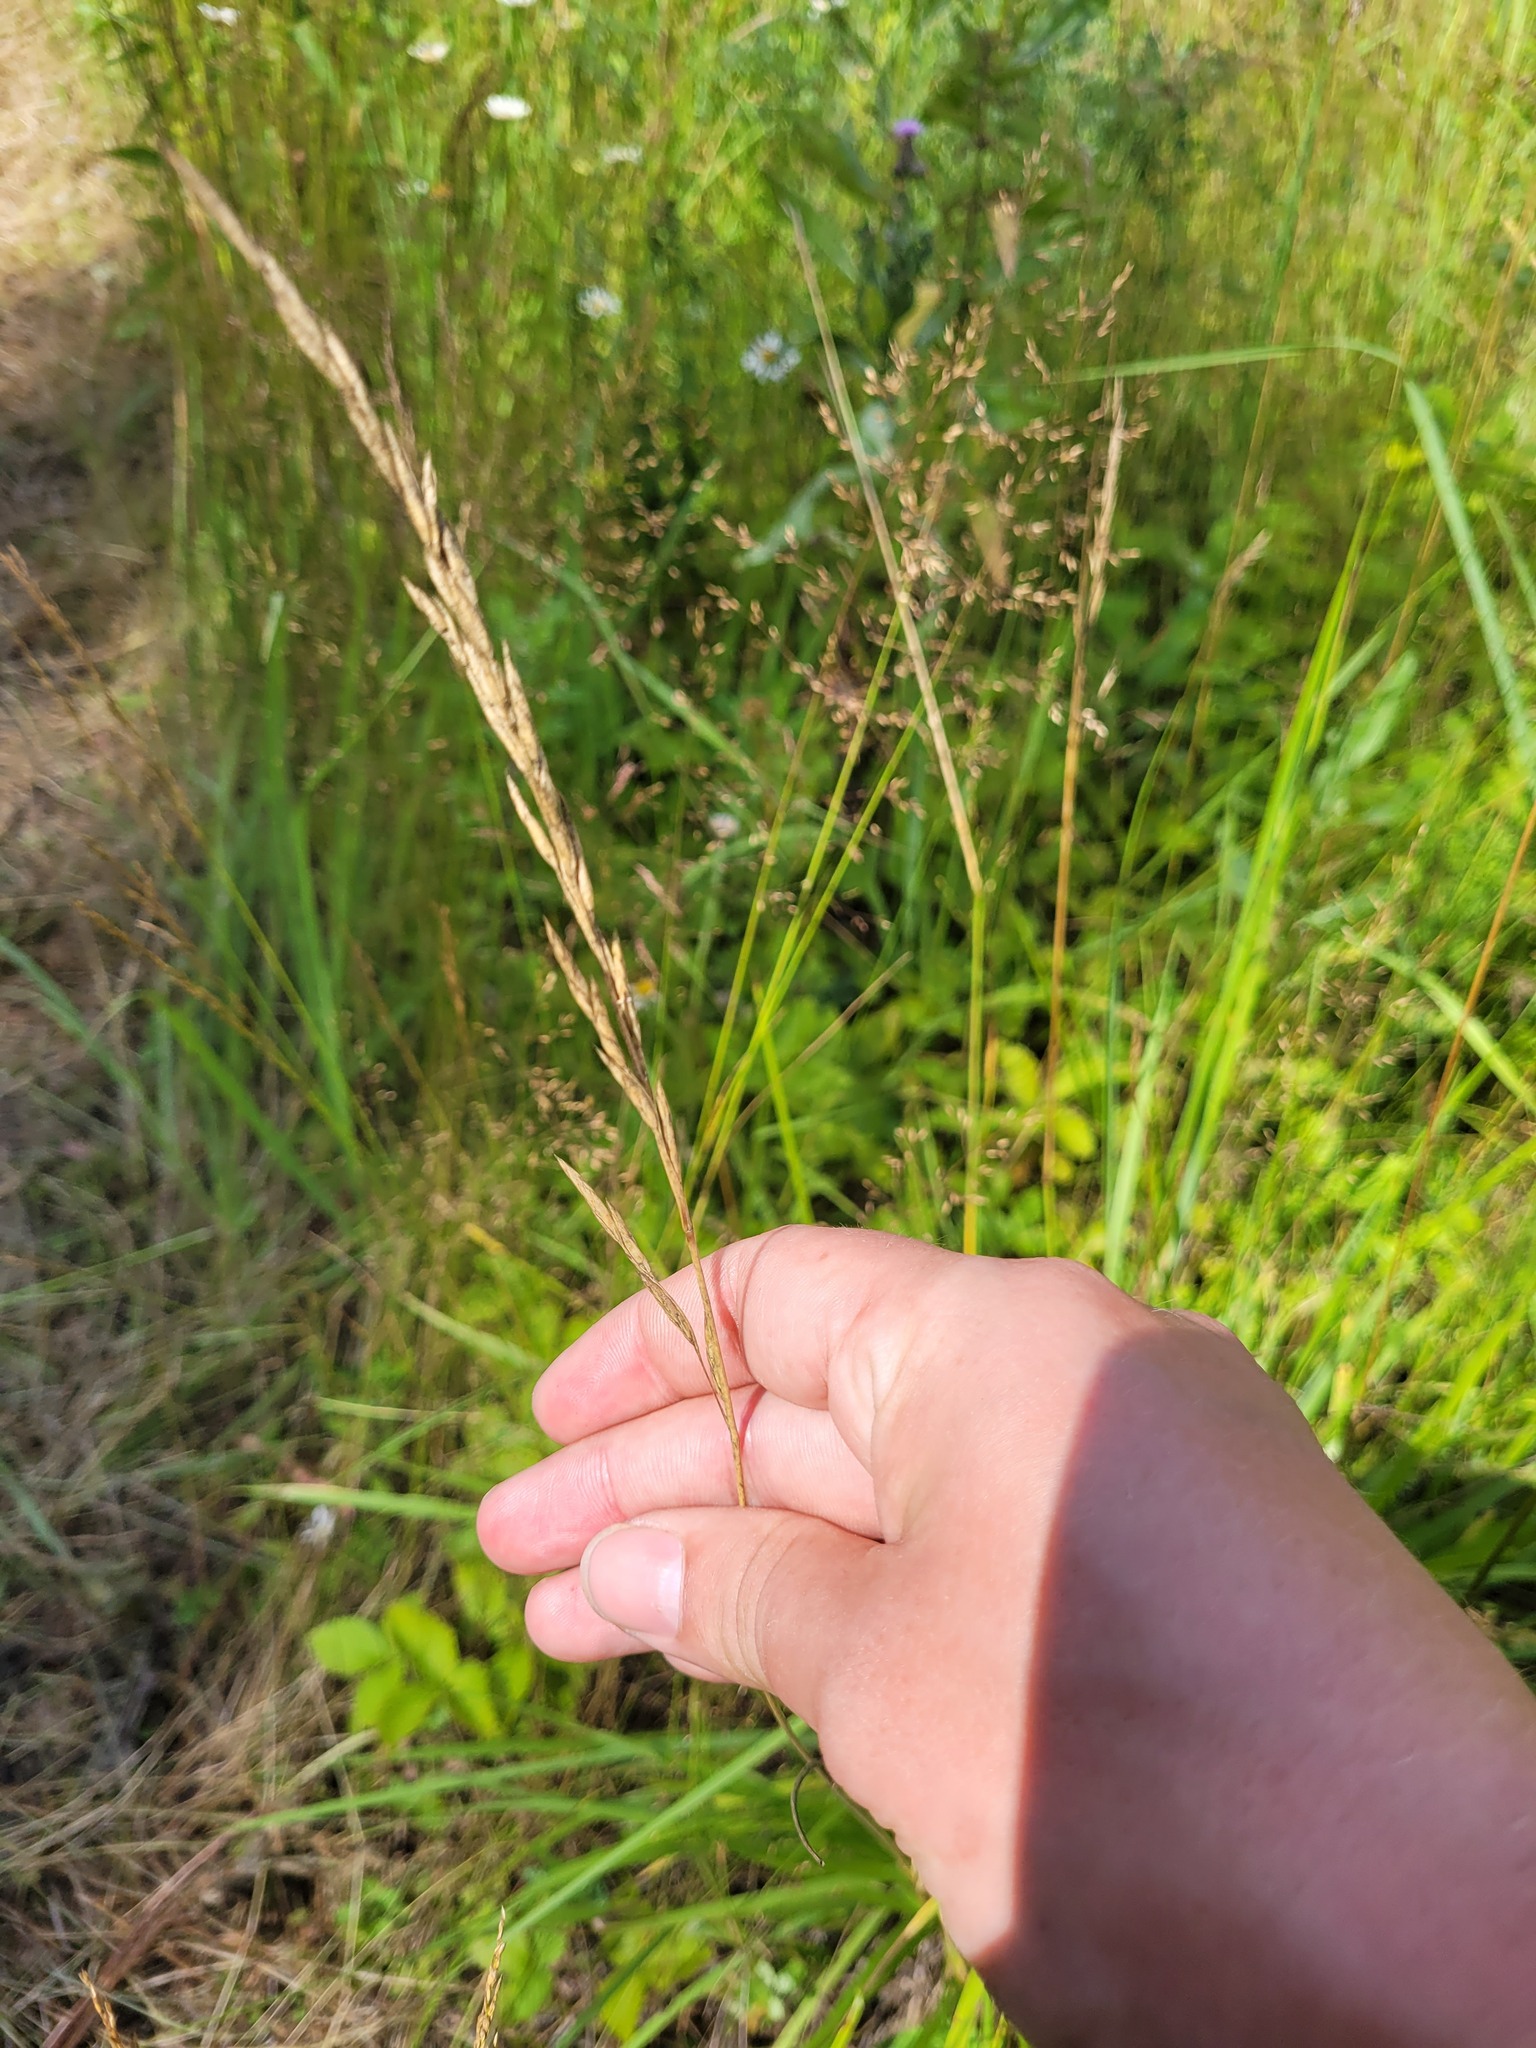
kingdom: Plantae
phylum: Tracheophyta
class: Liliopsida
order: Poales
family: Poaceae
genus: Lolium
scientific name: Lolium arundinaceum
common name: Reed fescue
